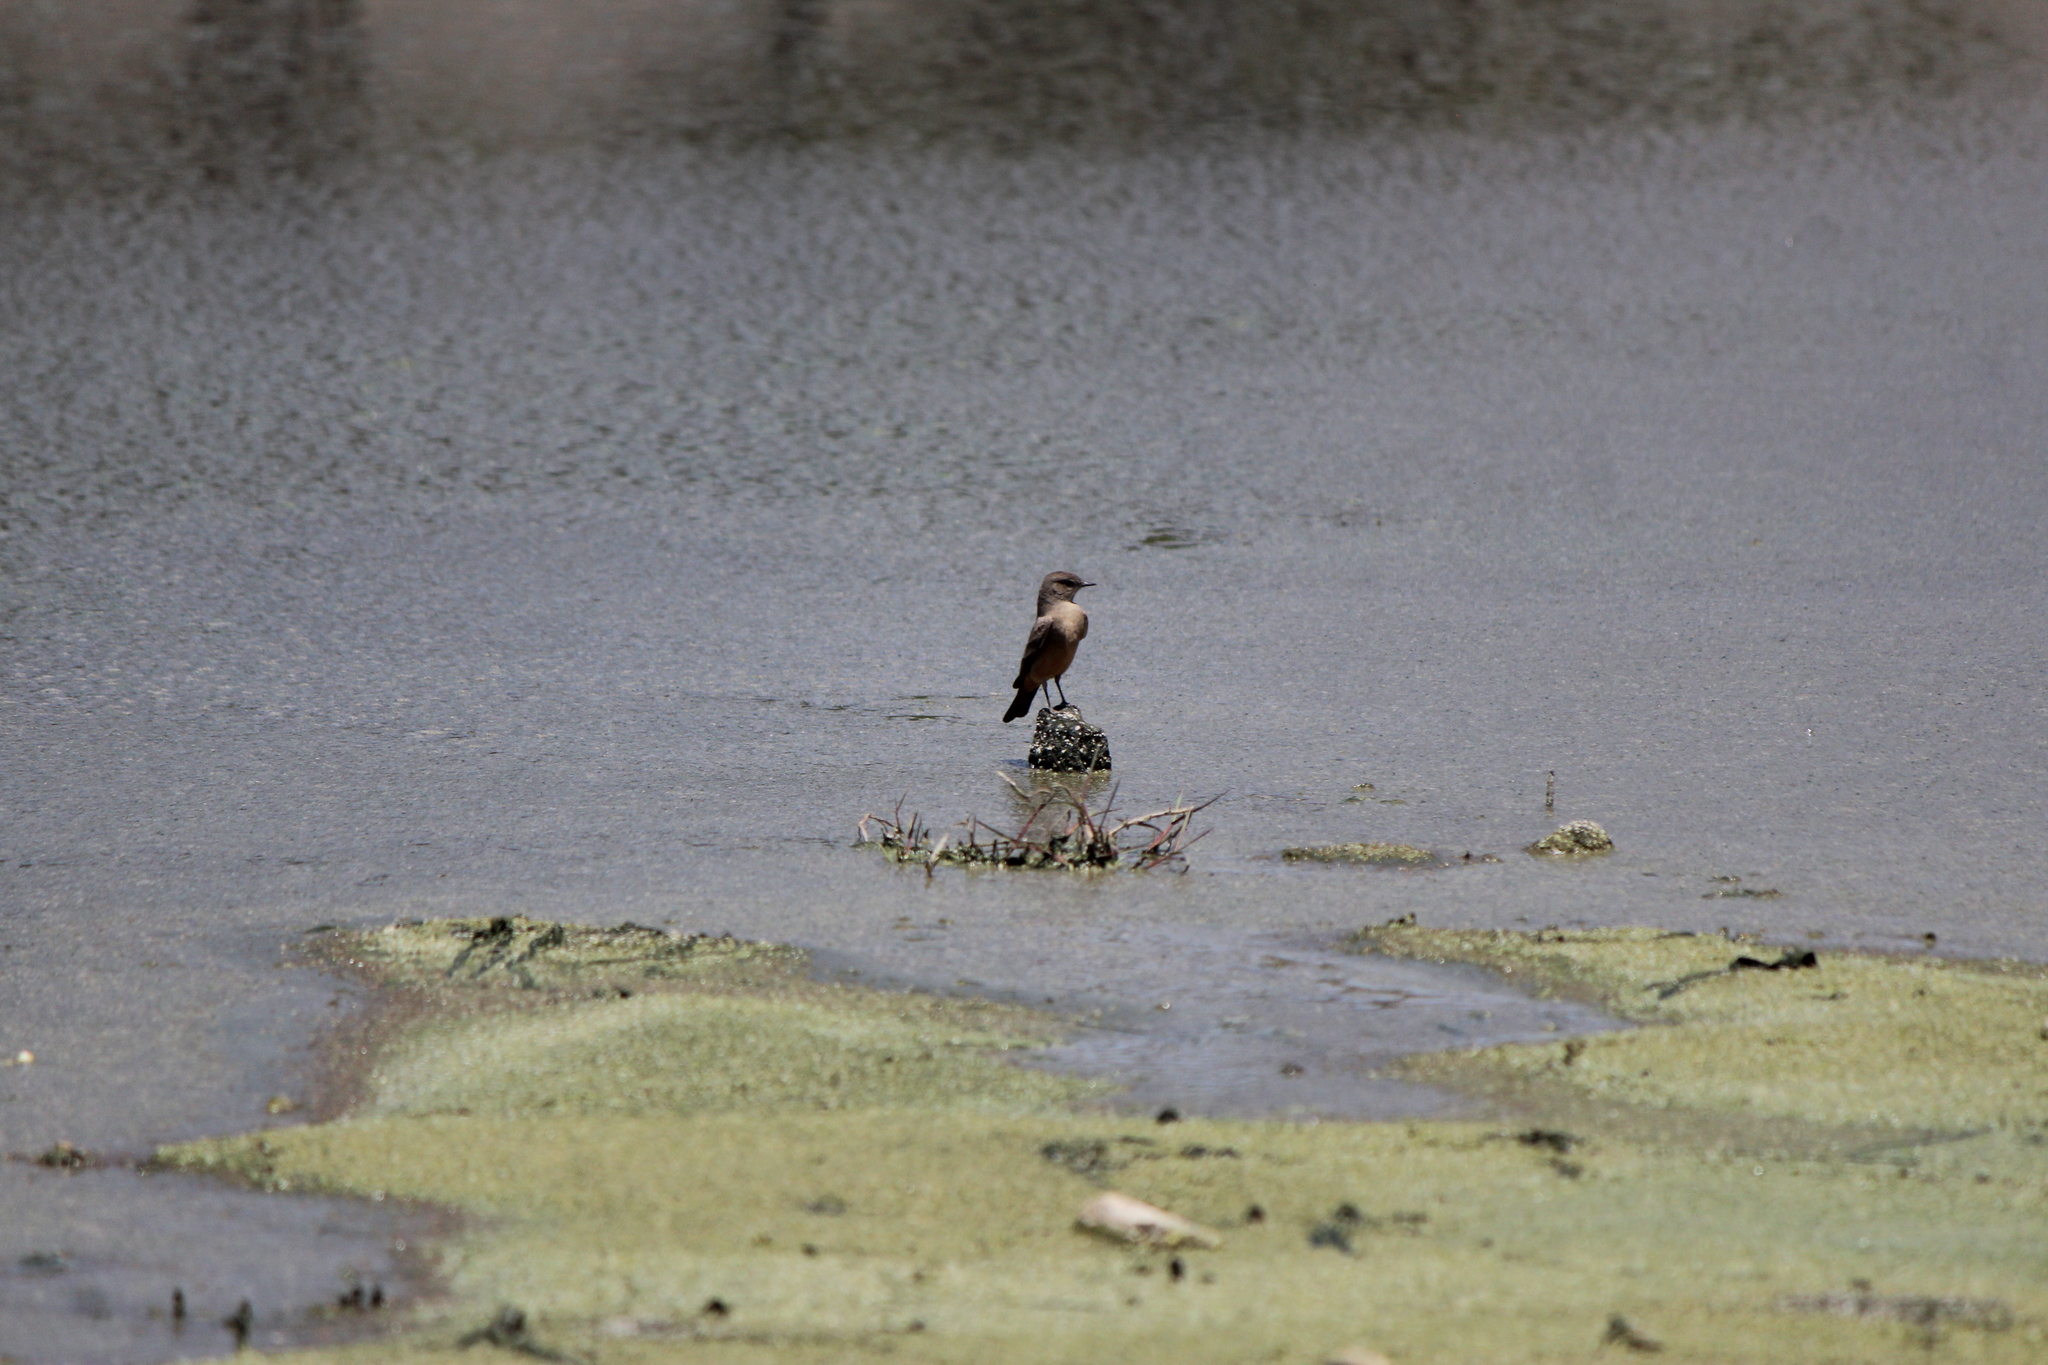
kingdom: Animalia
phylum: Chordata
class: Aves
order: Passeriformes
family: Tyrannidae
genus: Sayornis
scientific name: Sayornis saya
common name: Say's phoebe
